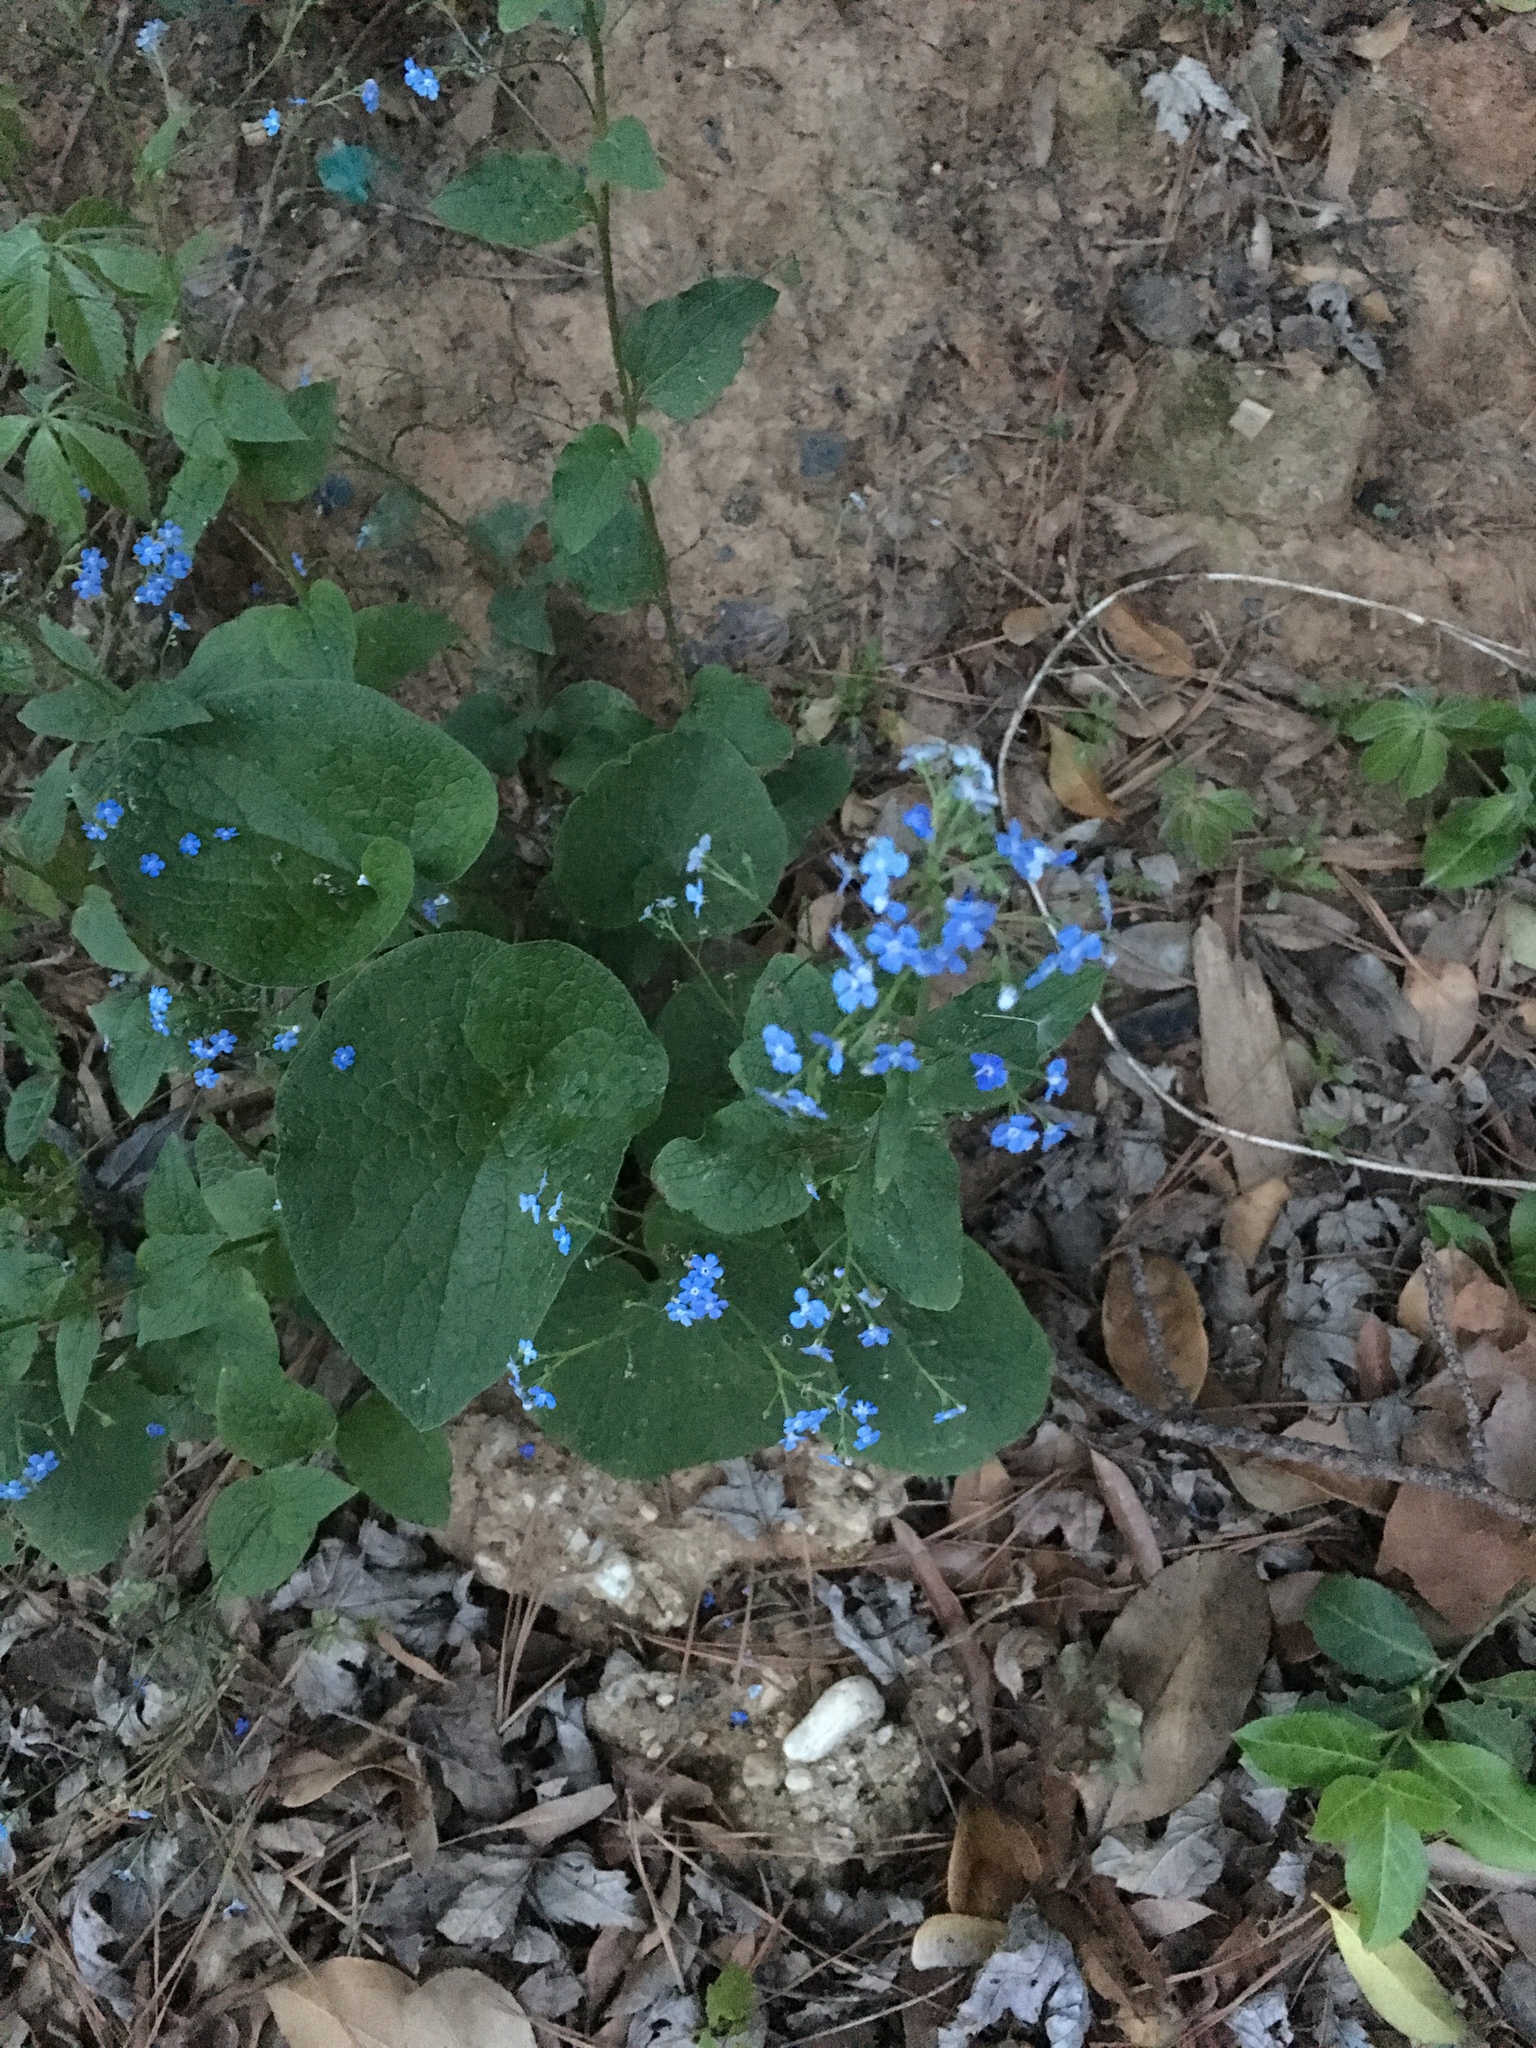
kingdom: Plantae
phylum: Tracheophyta
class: Magnoliopsida
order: Boraginales
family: Boraginaceae
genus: Brunnera
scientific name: Brunnera macrophylla
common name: Great forget-me-not
